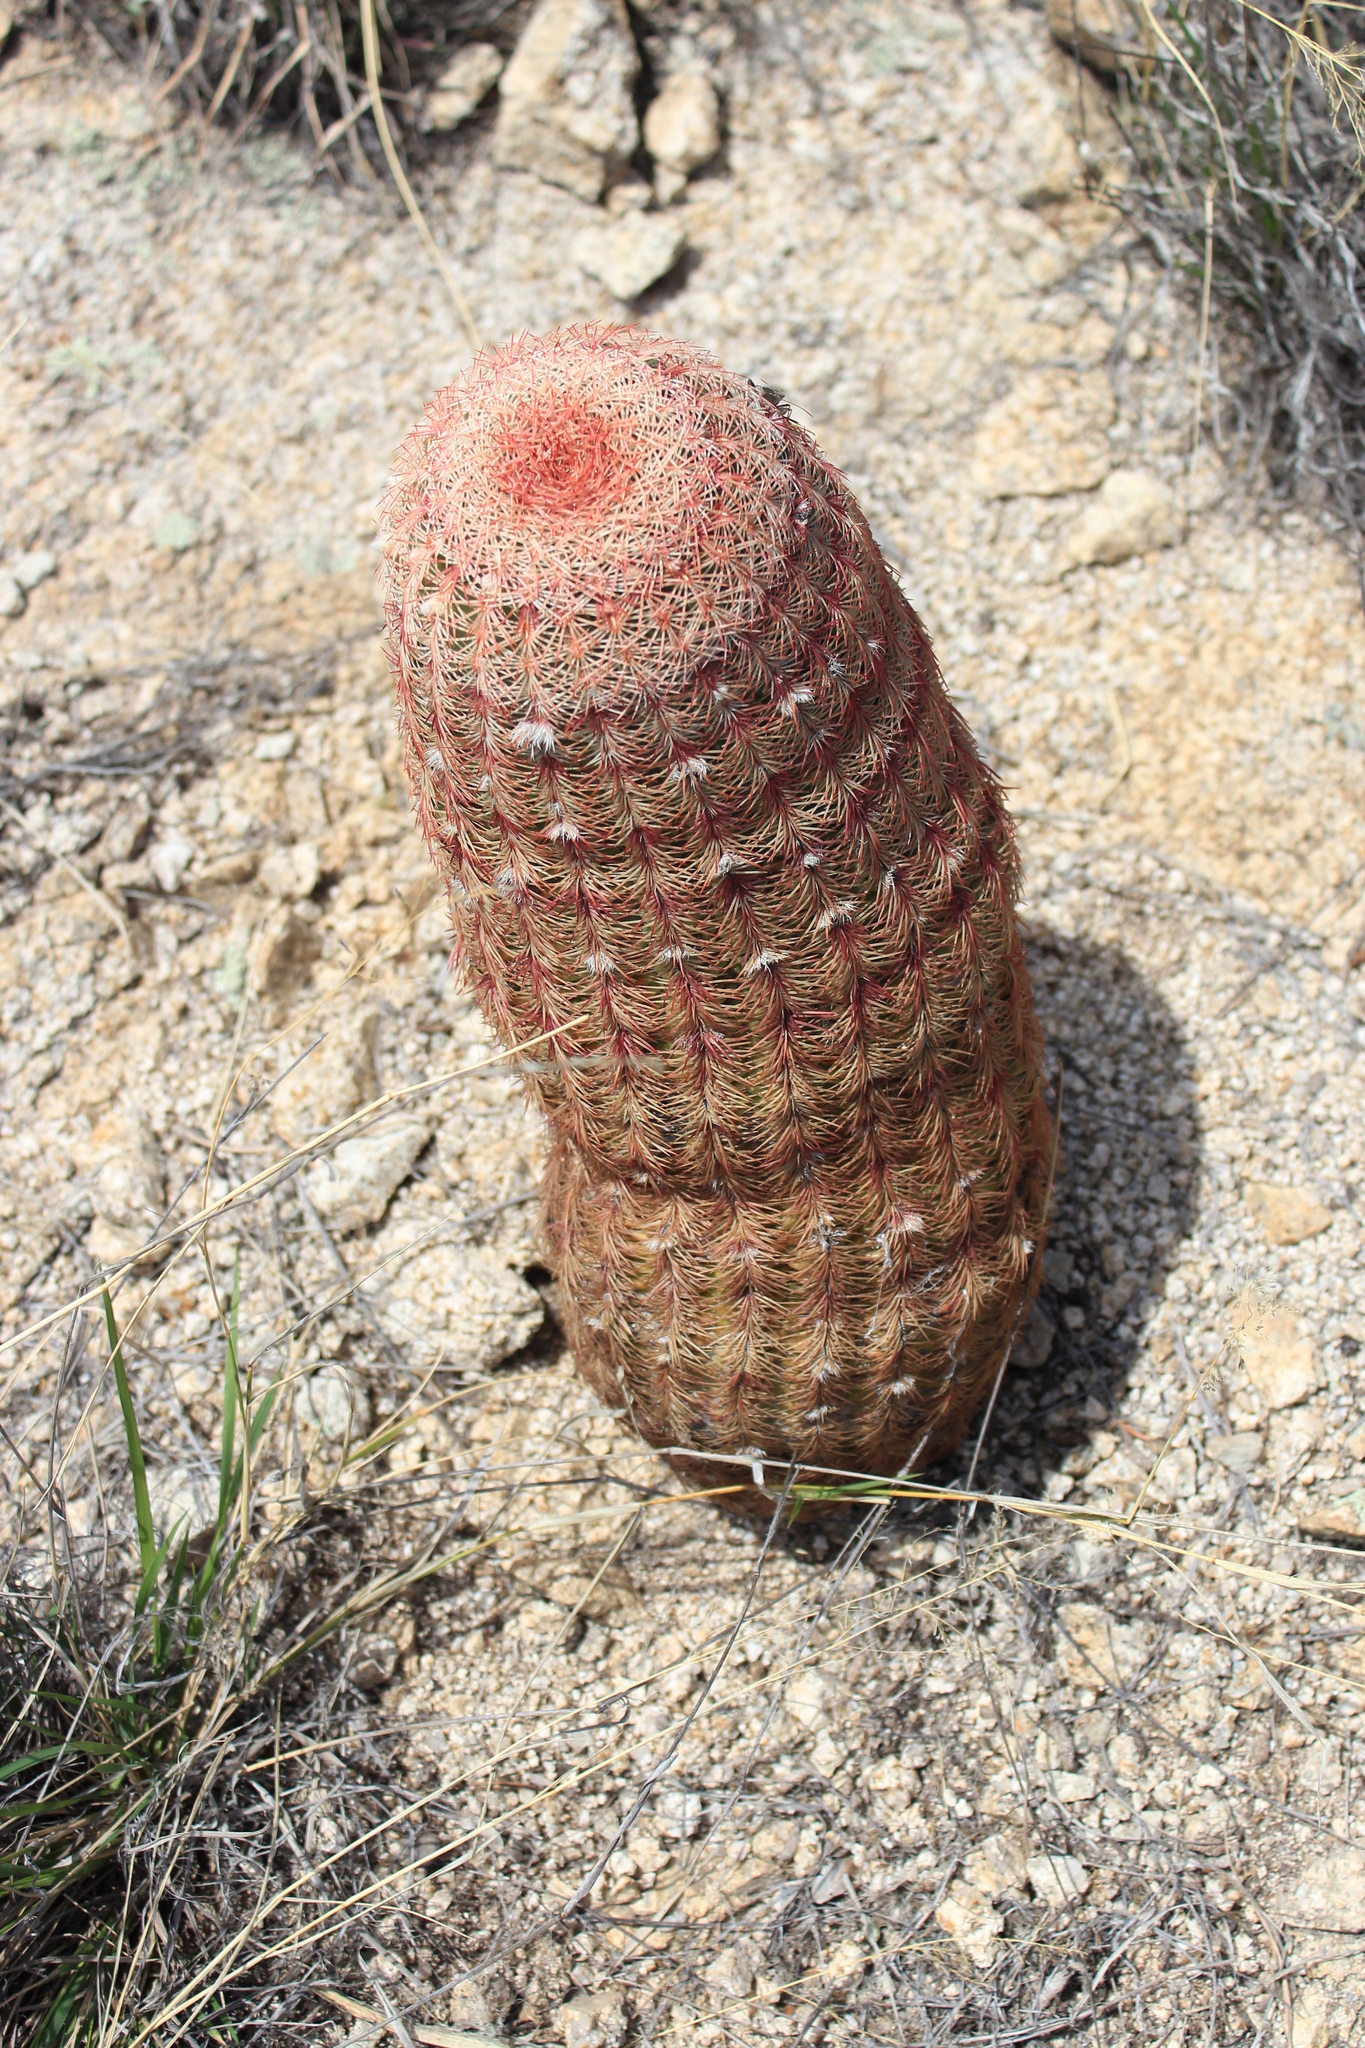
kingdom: Plantae
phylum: Tracheophyta
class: Magnoliopsida
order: Caryophyllales
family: Cactaceae
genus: Echinocereus
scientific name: Echinocereus rigidissimus
